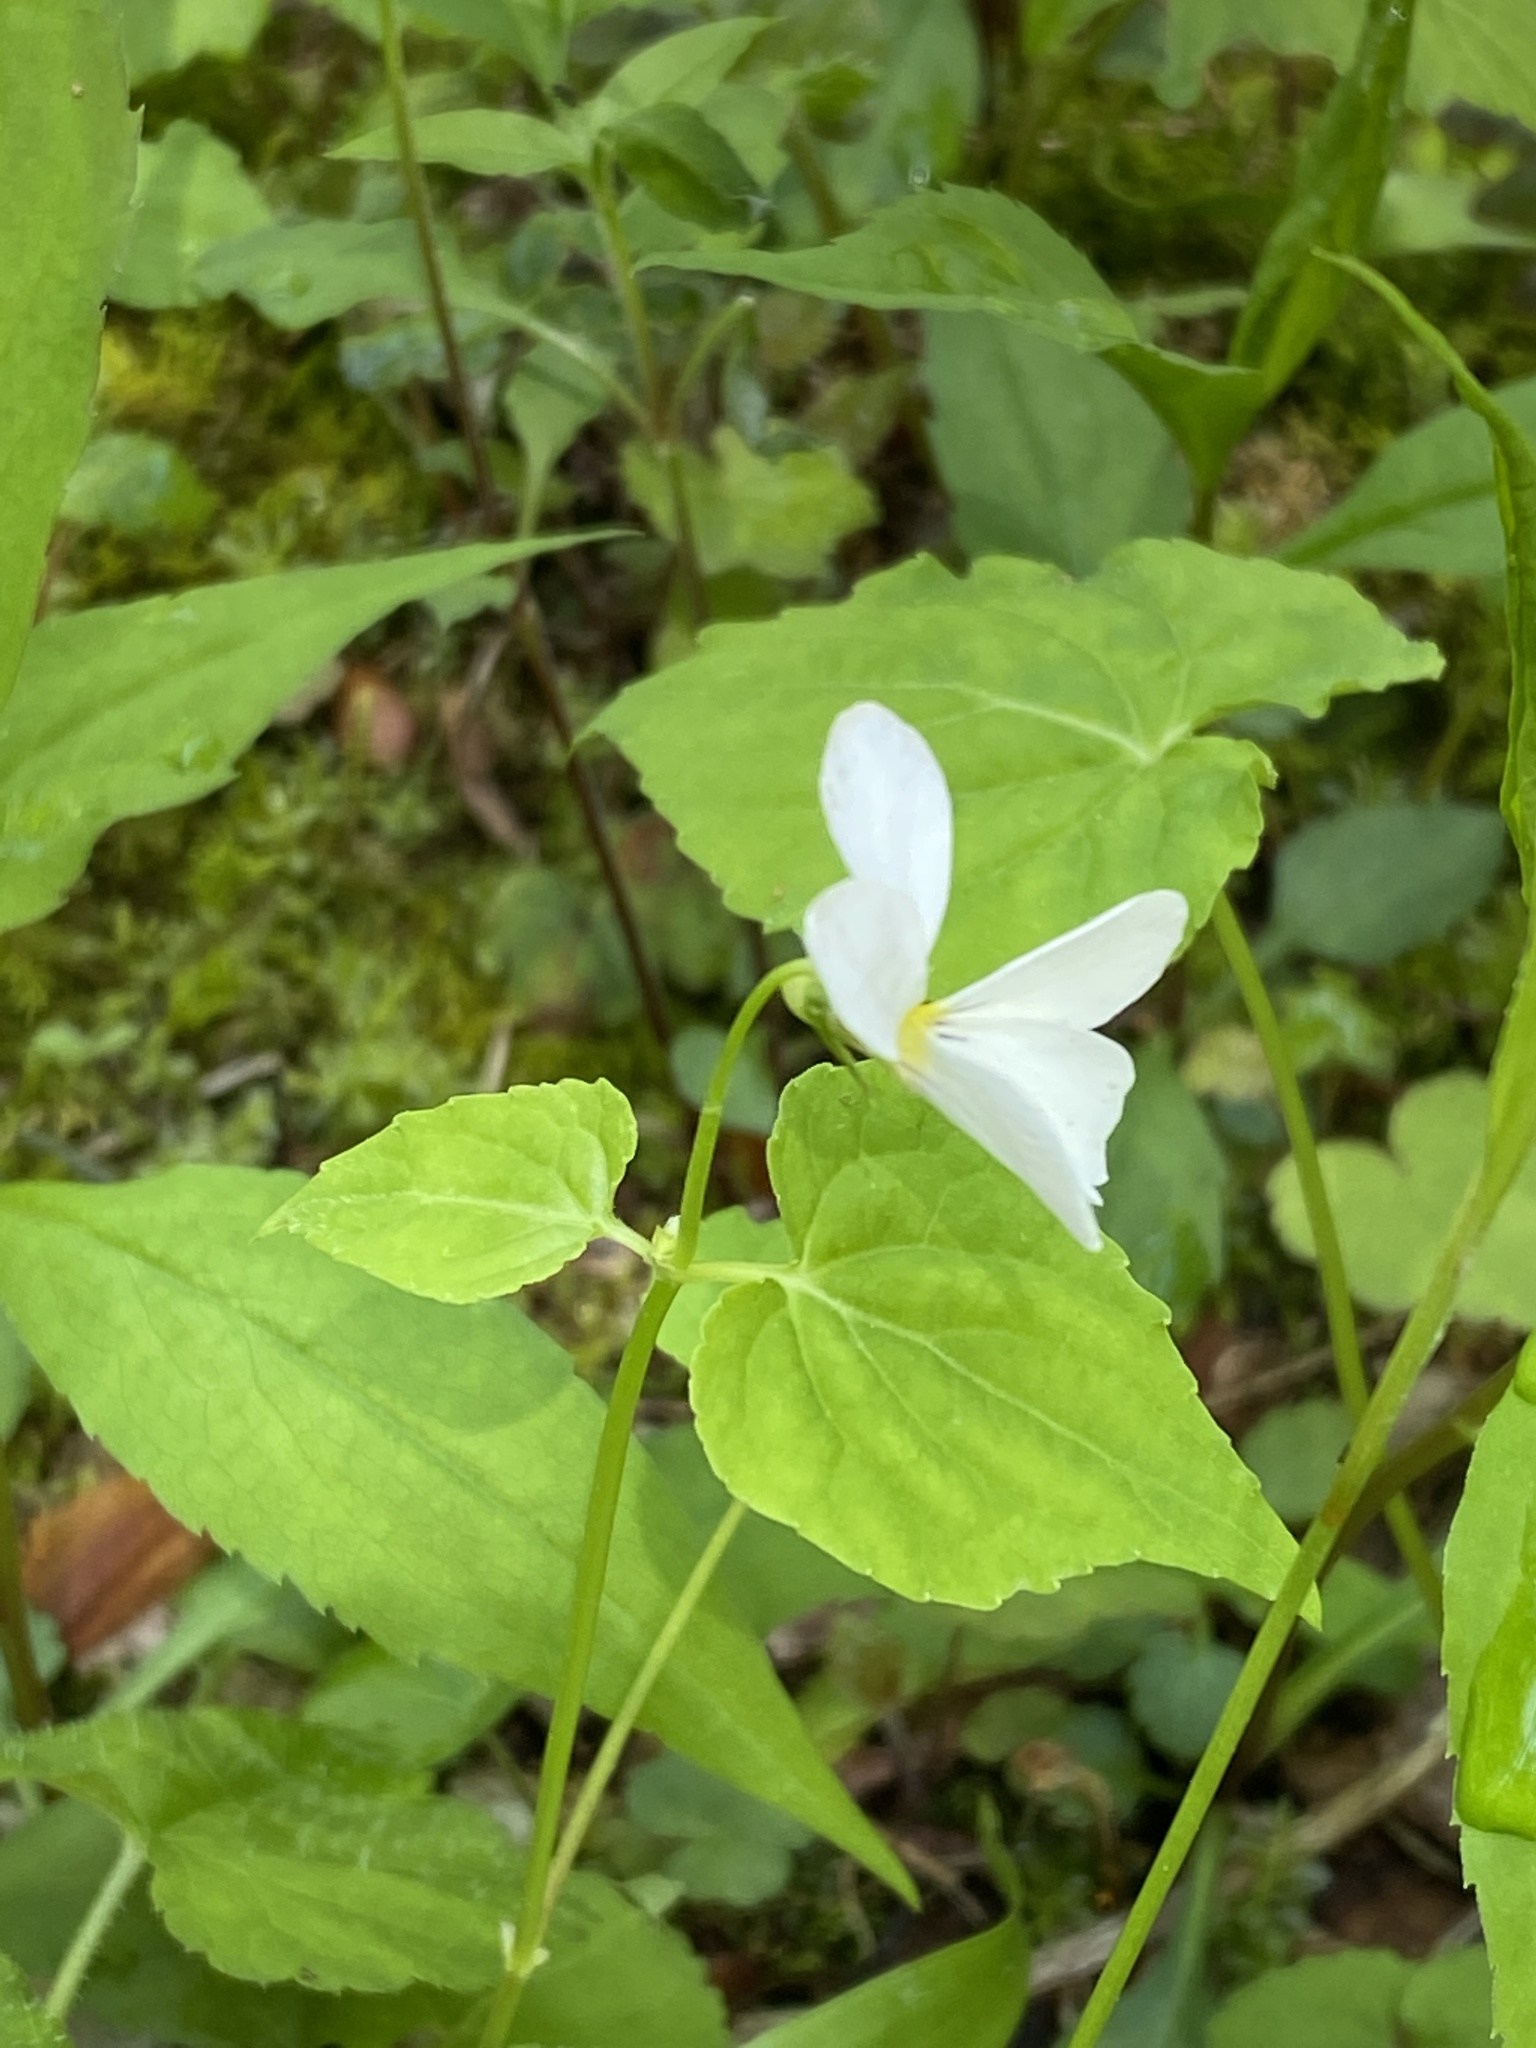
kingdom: Plantae
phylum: Tracheophyta
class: Magnoliopsida
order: Malpighiales
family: Violaceae
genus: Viola
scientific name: Viola canadensis
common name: Canada violet
